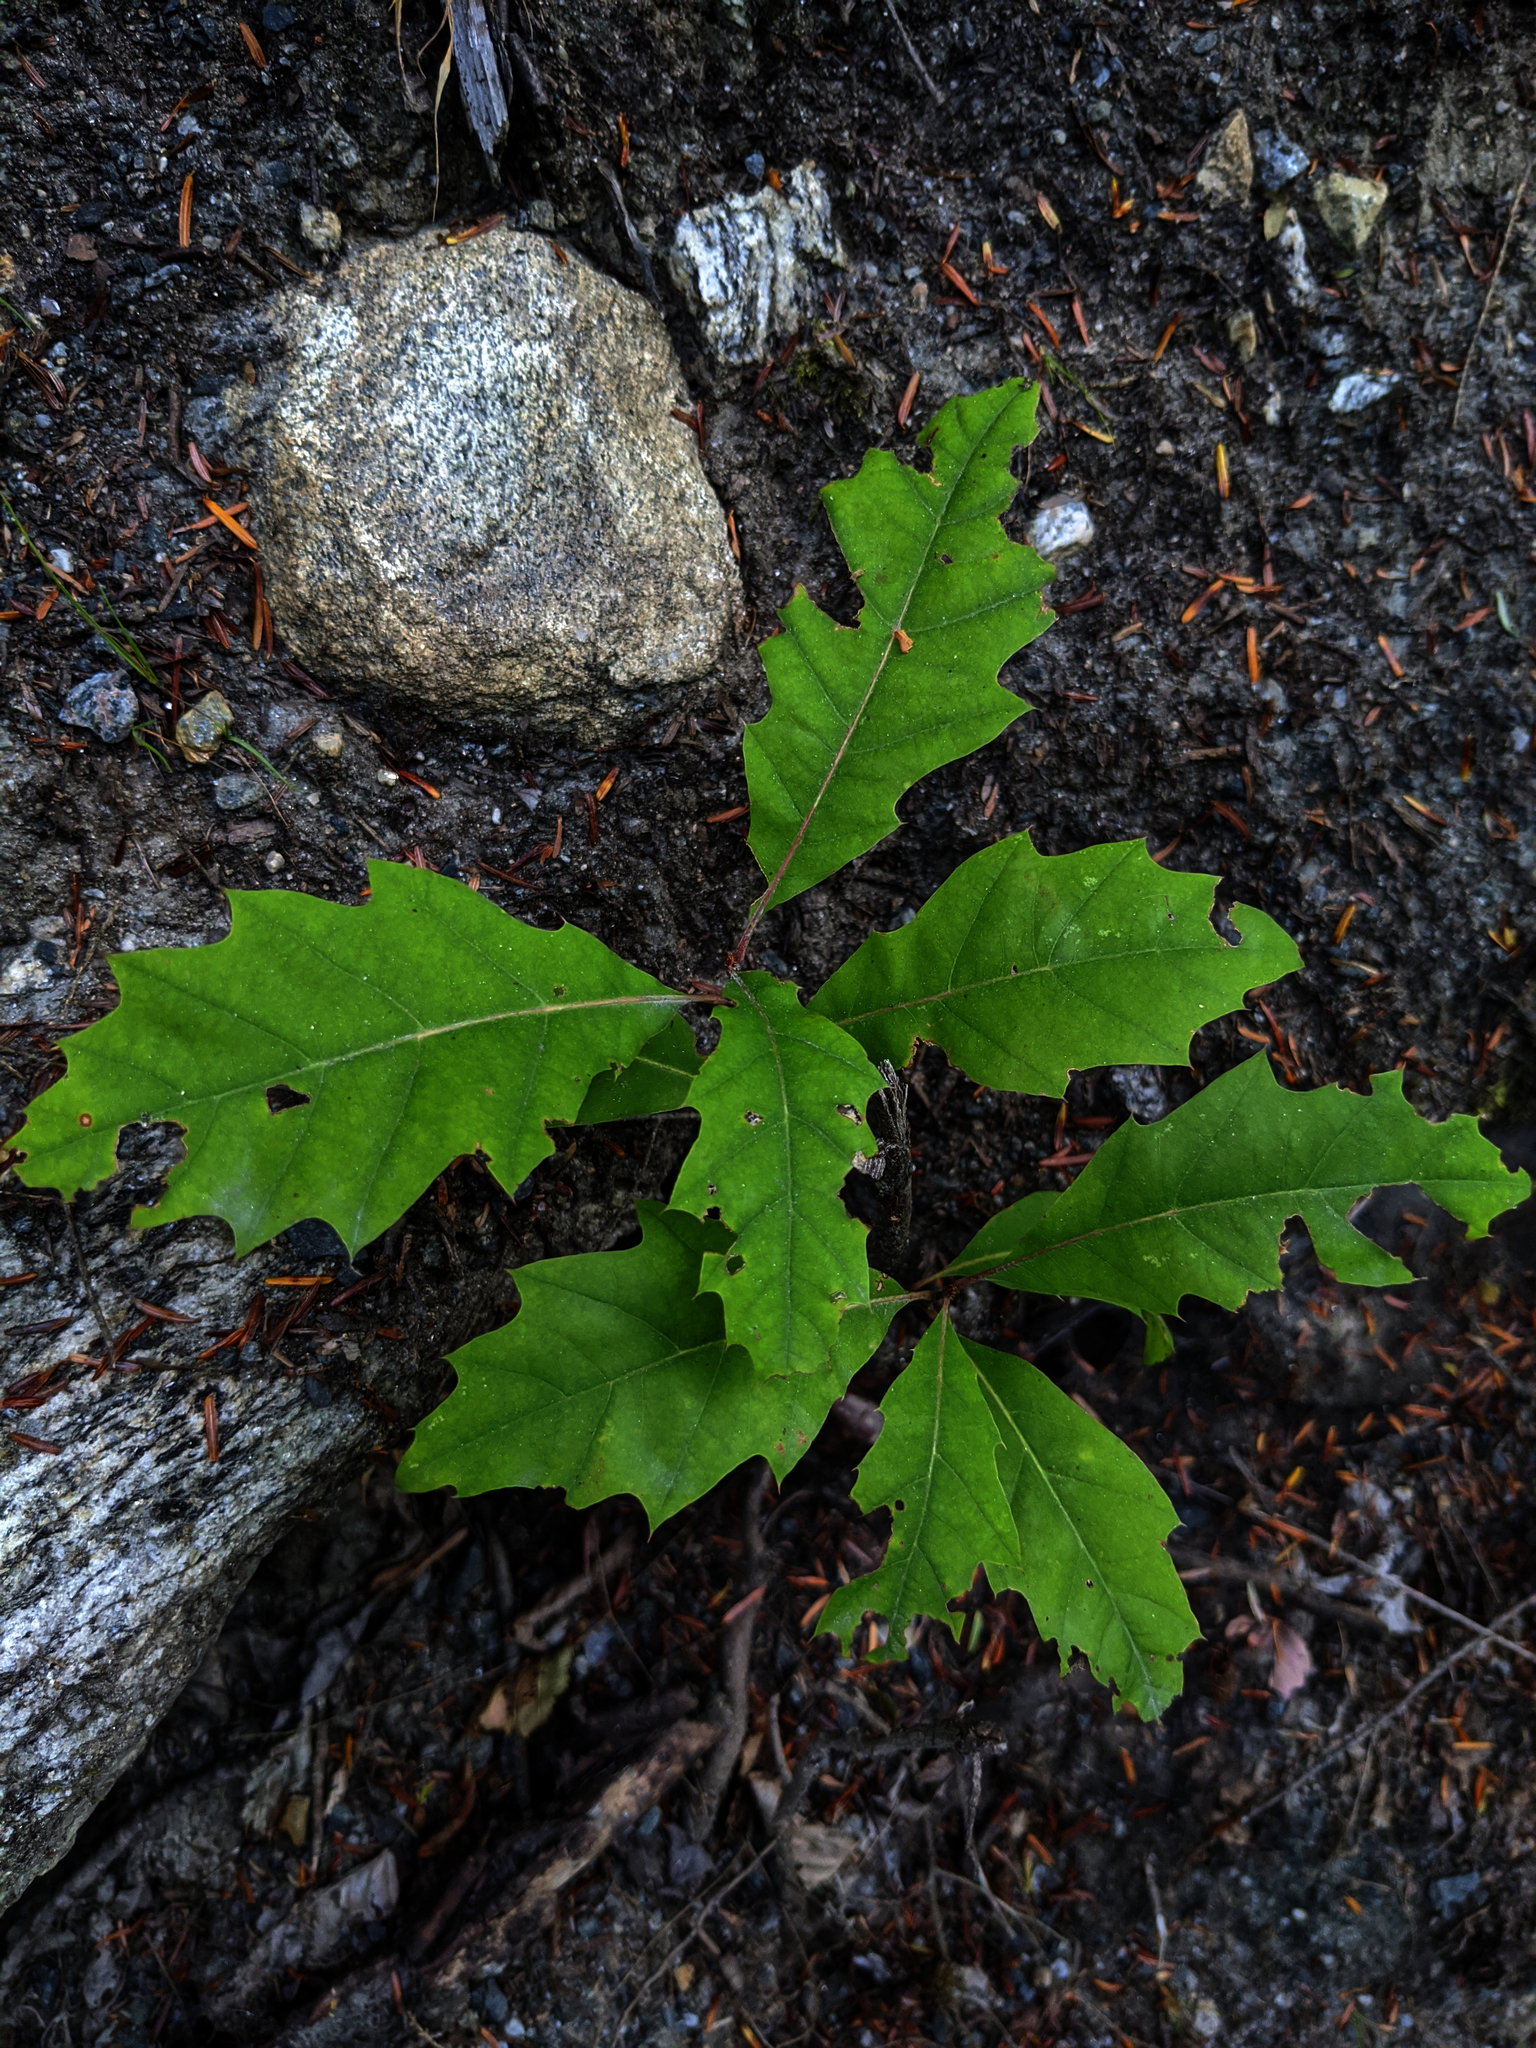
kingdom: Plantae
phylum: Tracheophyta
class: Magnoliopsida
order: Fagales
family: Fagaceae
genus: Quercus
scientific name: Quercus rubra
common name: Red oak
